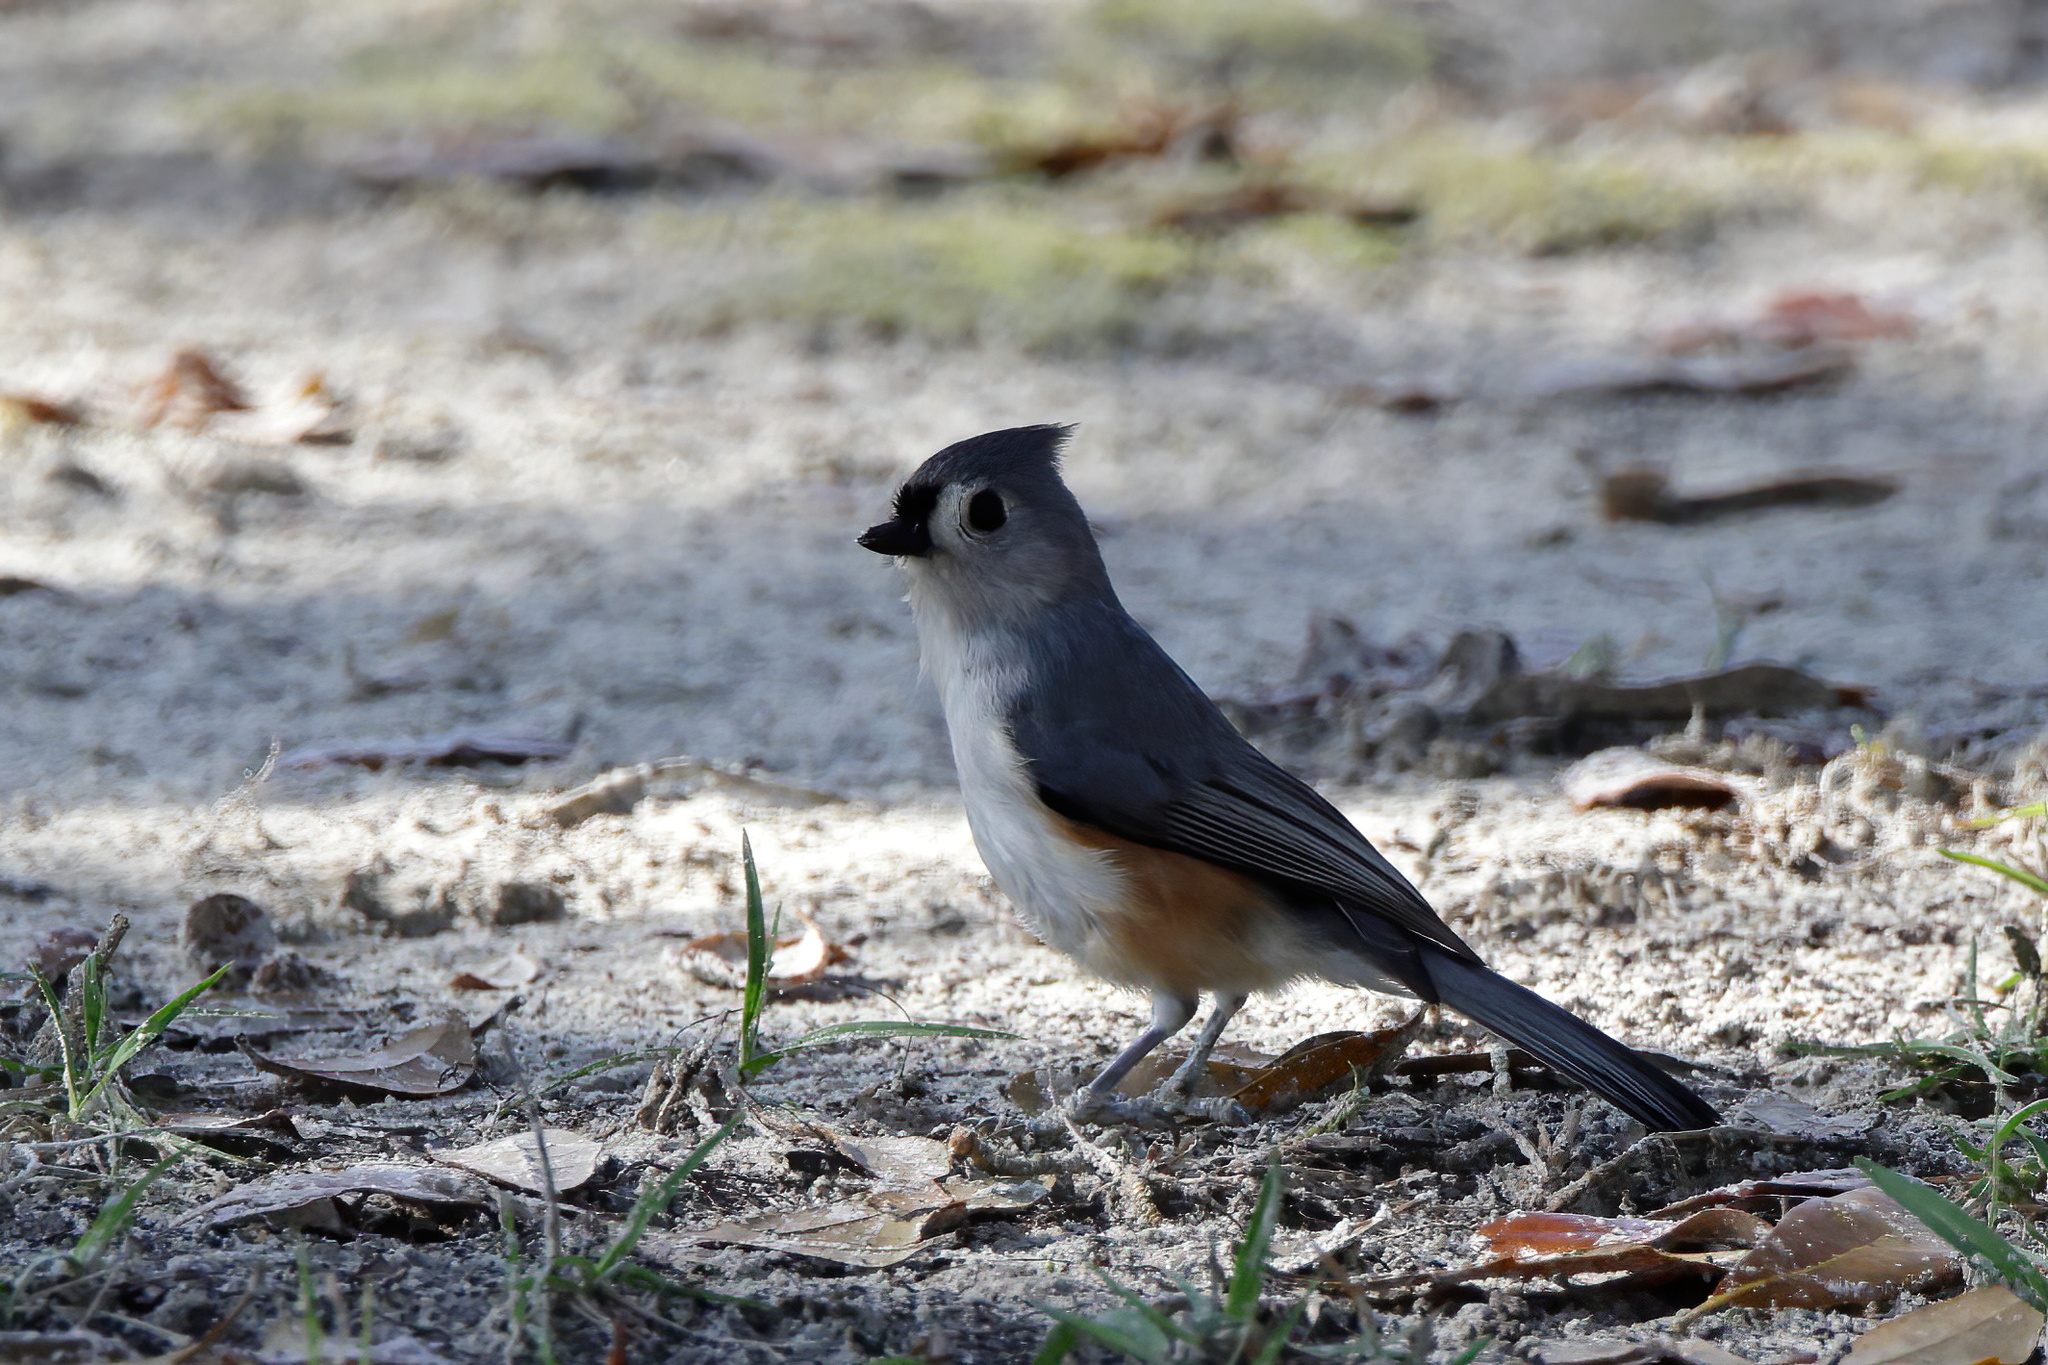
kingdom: Animalia
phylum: Chordata
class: Aves
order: Passeriformes
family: Paridae
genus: Baeolophus
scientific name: Baeolophus bicolor
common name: Tufted titmouse
